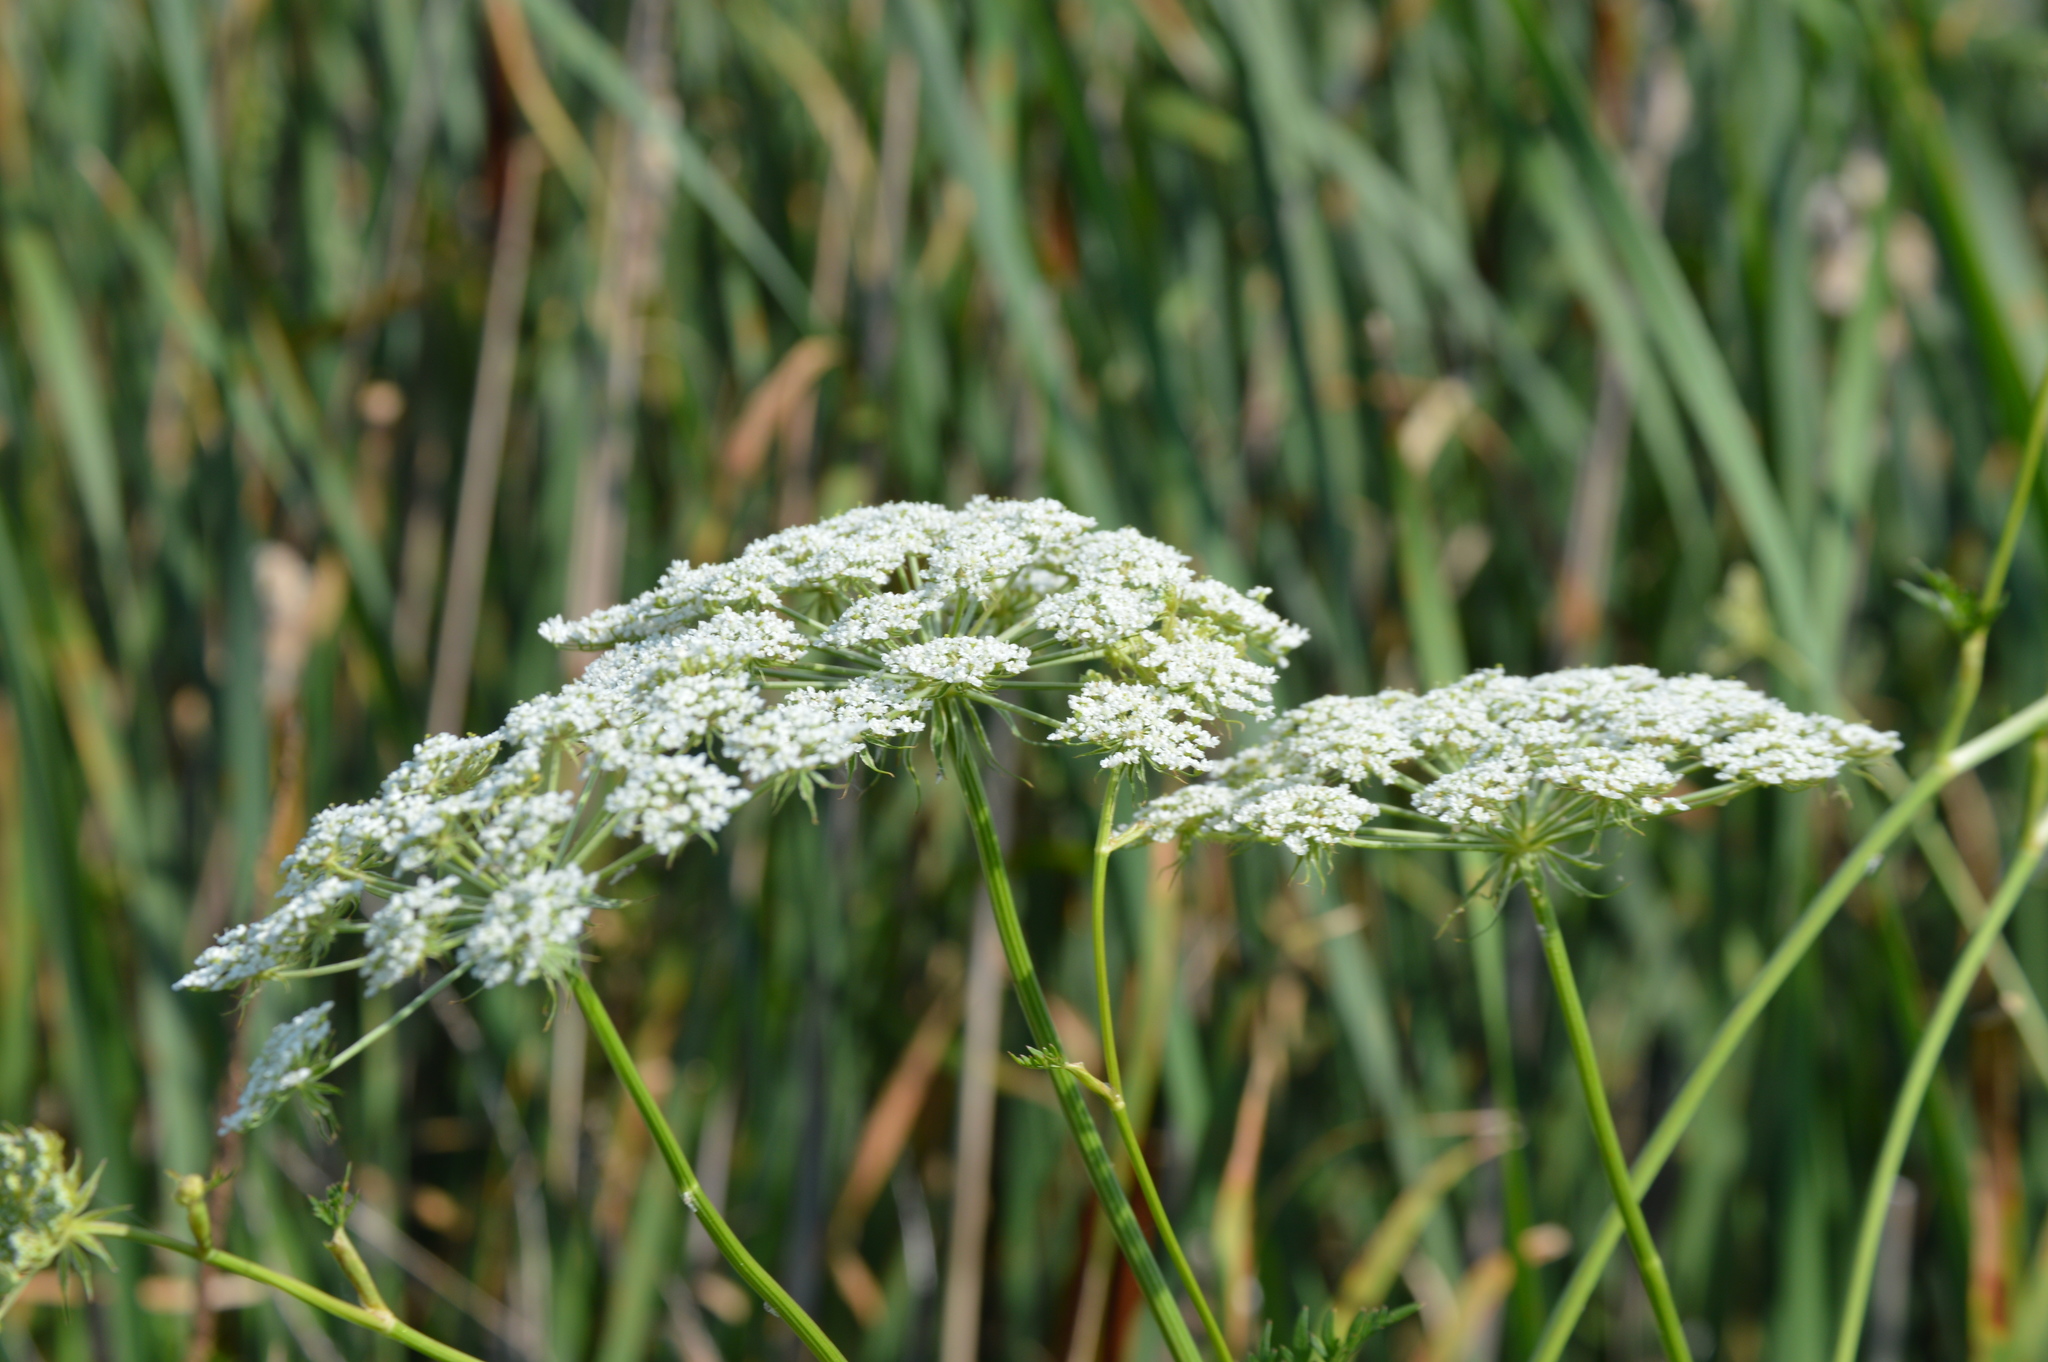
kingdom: Plantae
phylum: Tracheophyta
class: Magnoliopsida
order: Apiales
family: Apiaceae
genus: Daucus
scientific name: Daucus carota
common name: Wild carrot
